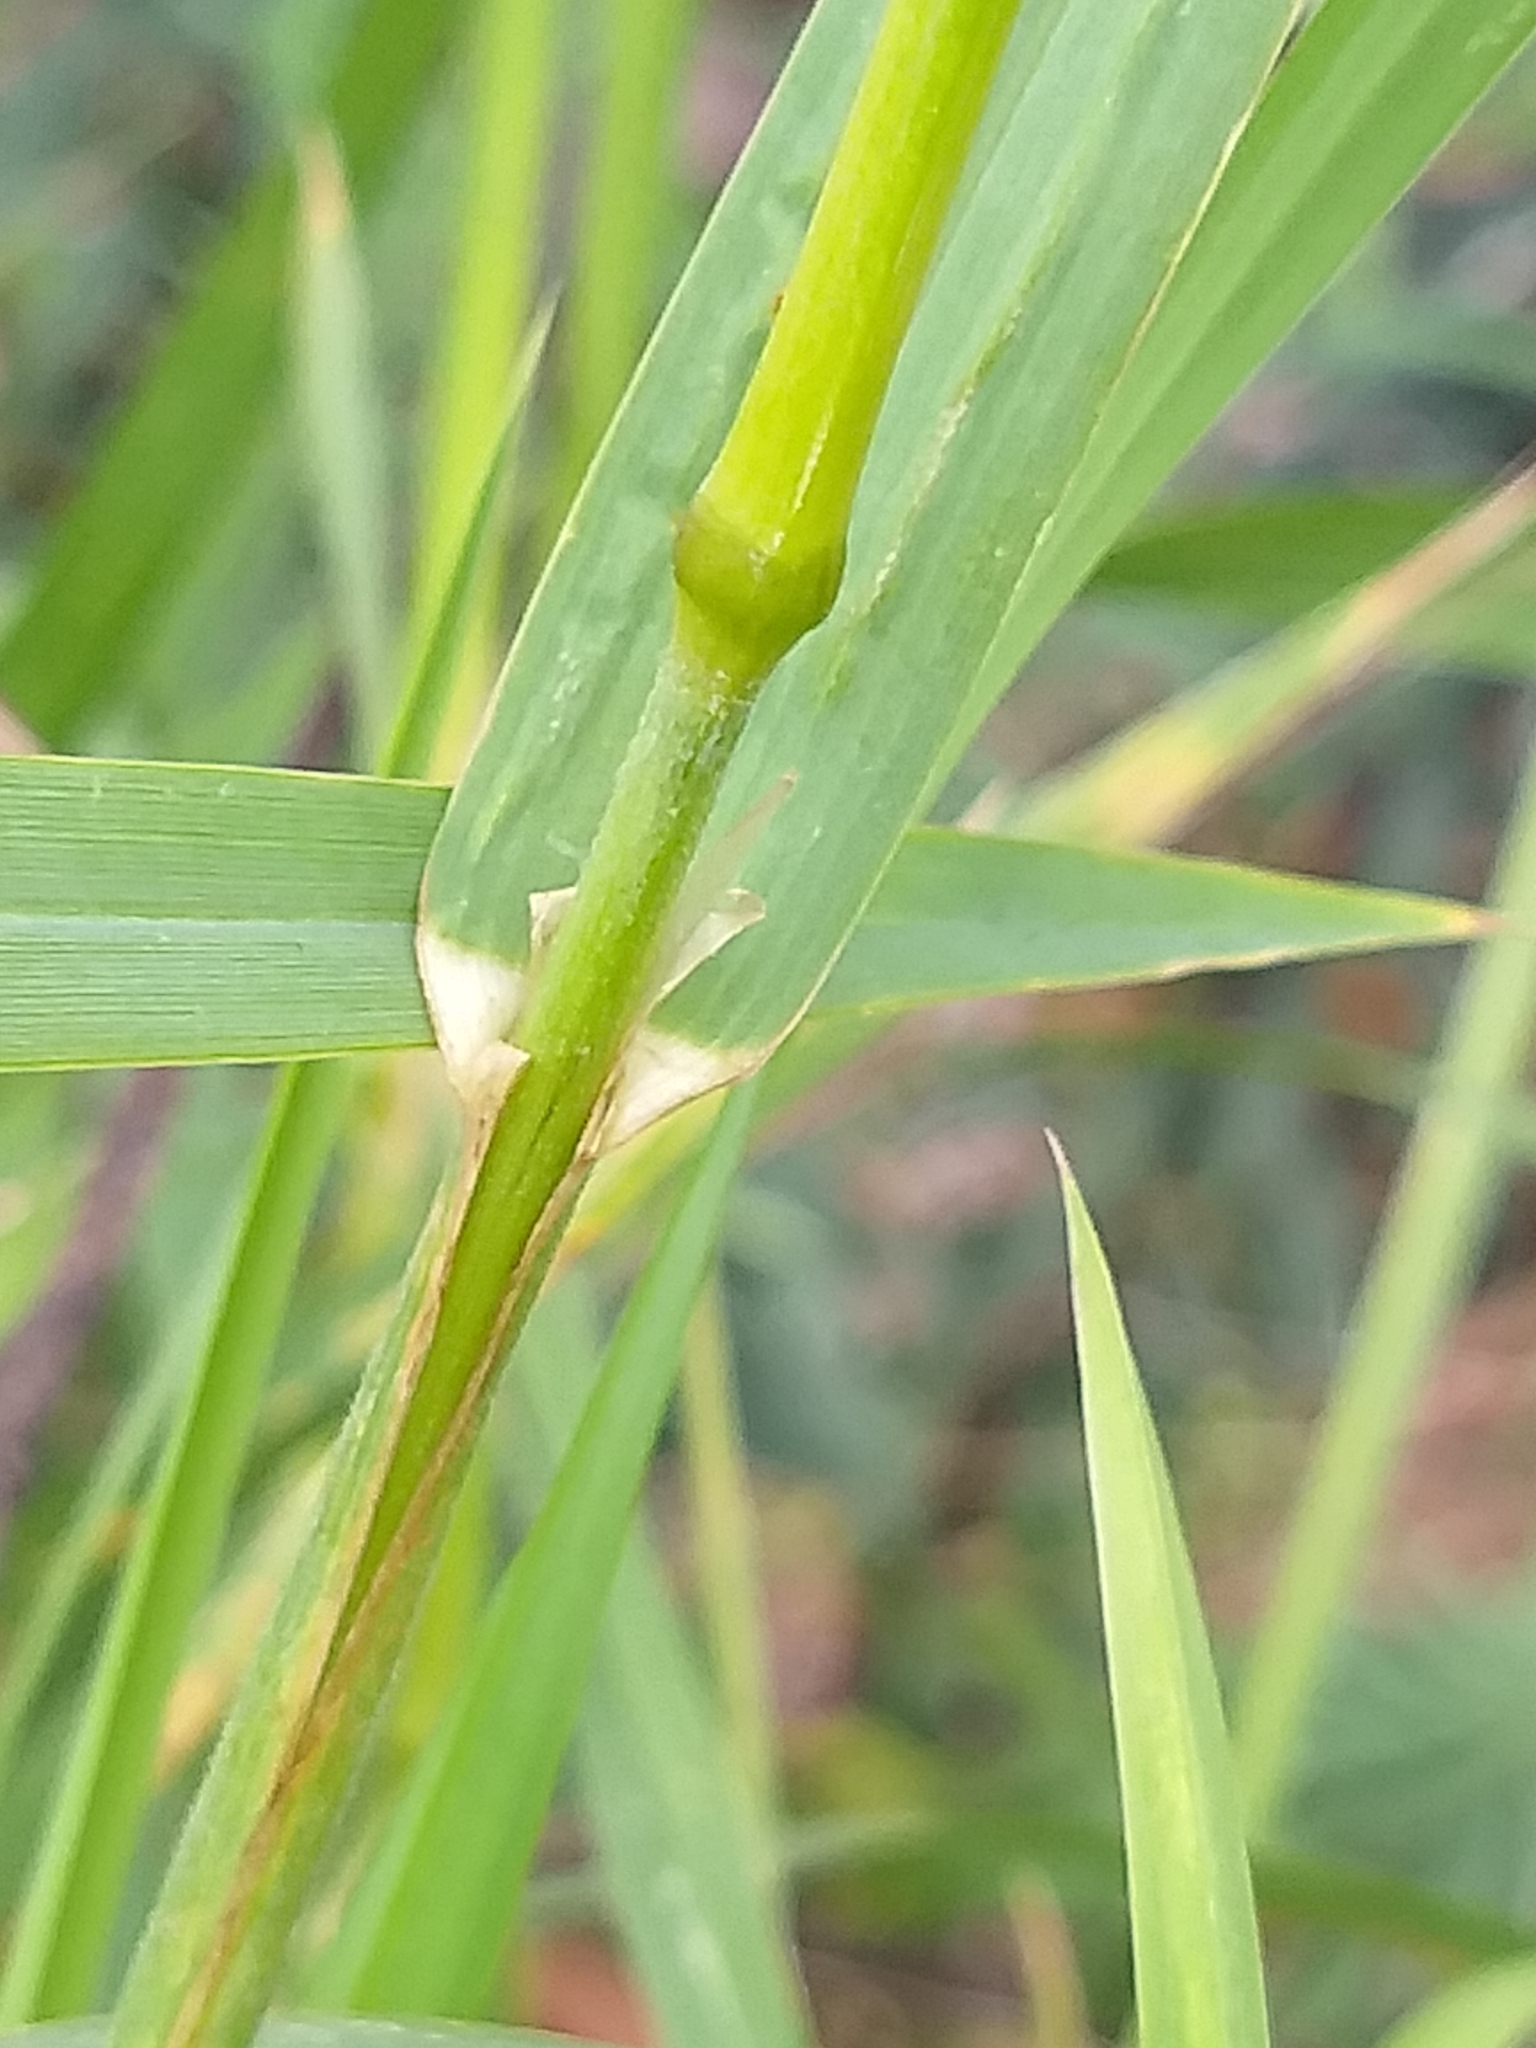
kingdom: Plantae
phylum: Tracheophyta
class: Liliopsida
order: Poales
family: Poaceae
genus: Dactylis
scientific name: Dactylis glomerata
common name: Orchardgrass
